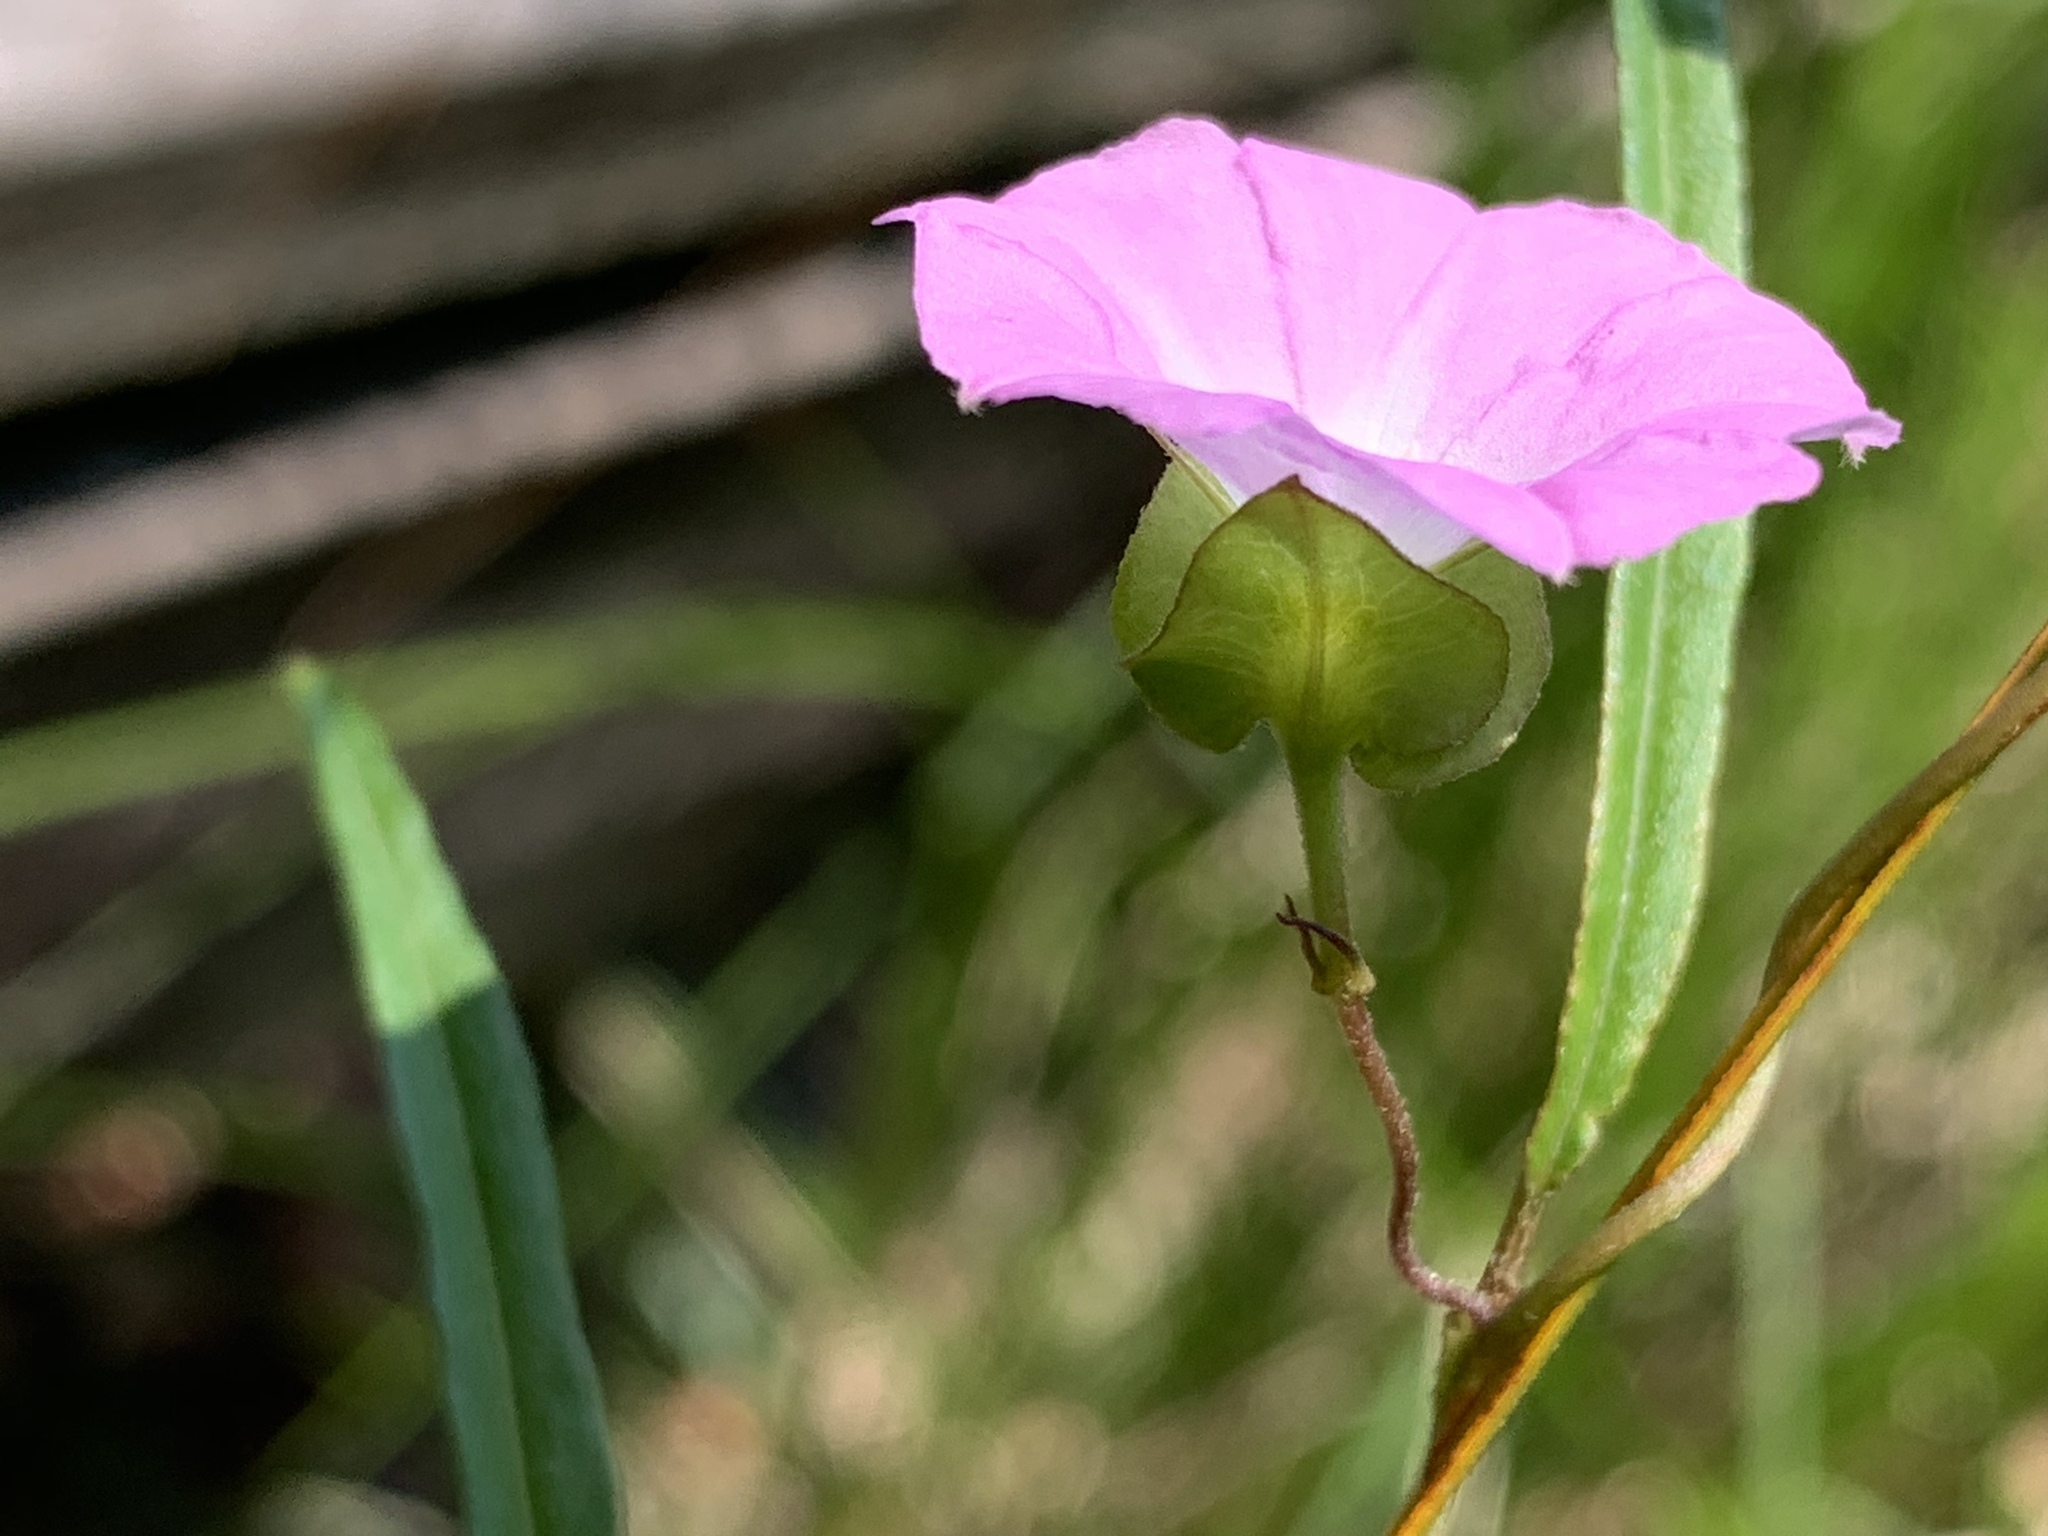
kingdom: Plantae
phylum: Tracheophyta
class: Magnoliopsida
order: Solanales
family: Convolvulaceae
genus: Polymeria
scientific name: Polymeria calycina
